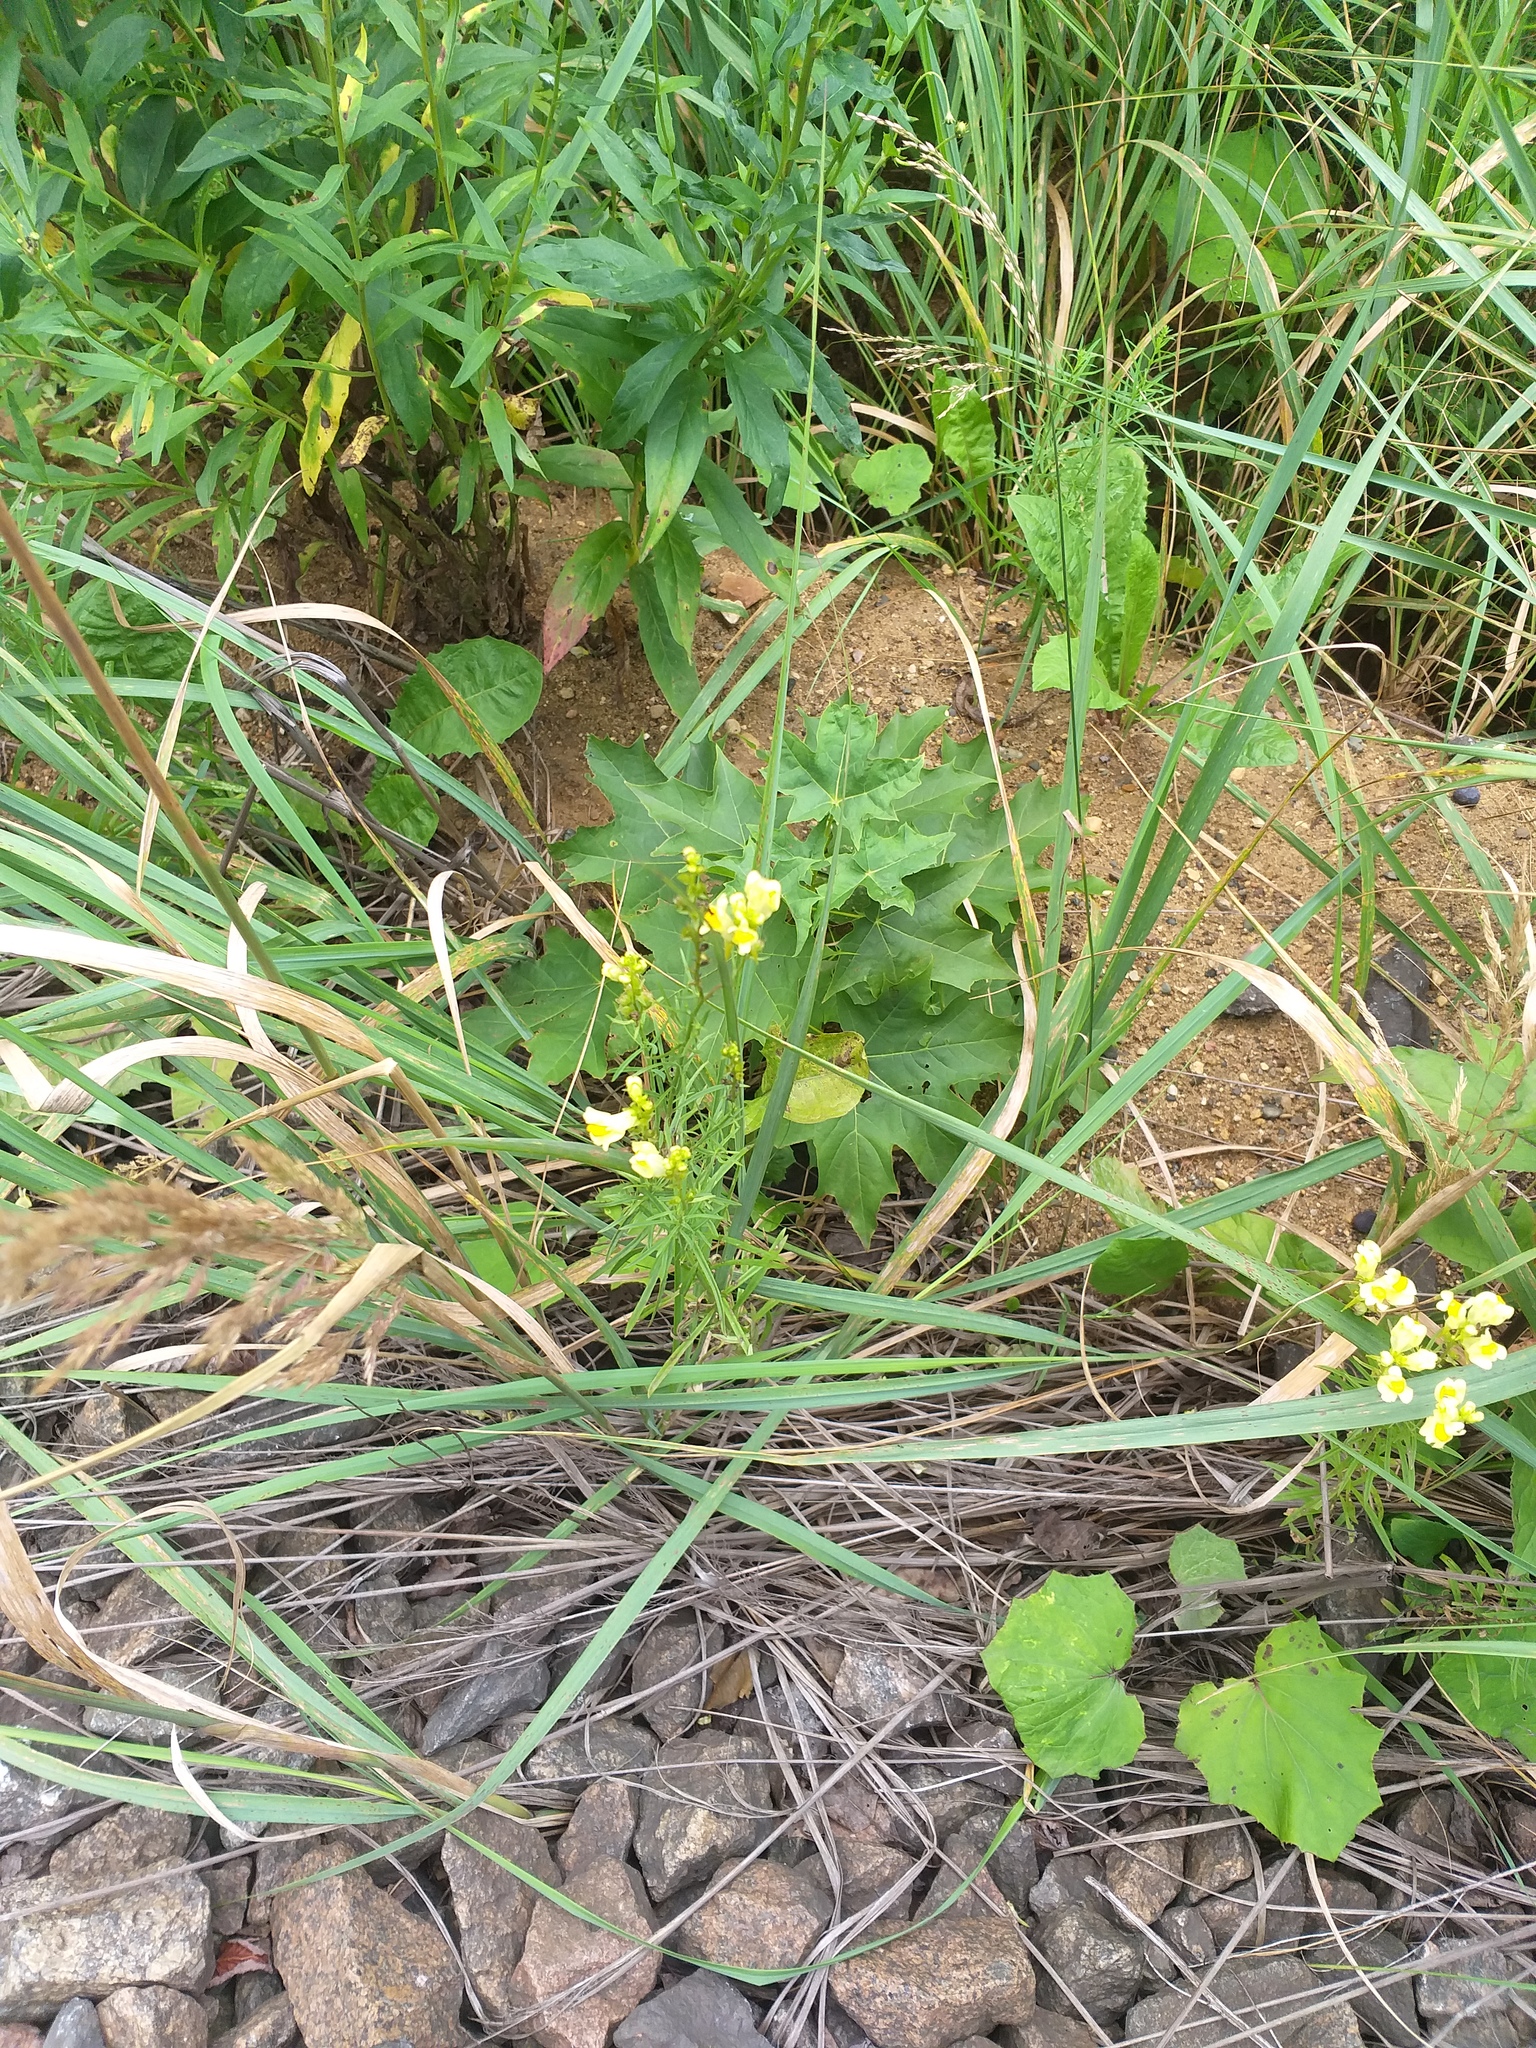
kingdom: Plantae
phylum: Tracheophyta
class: Magnoliopsida
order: Lamiales
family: Plantaginaceae
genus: Linaria
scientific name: Linaria vulgaris
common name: Butter and eggs
